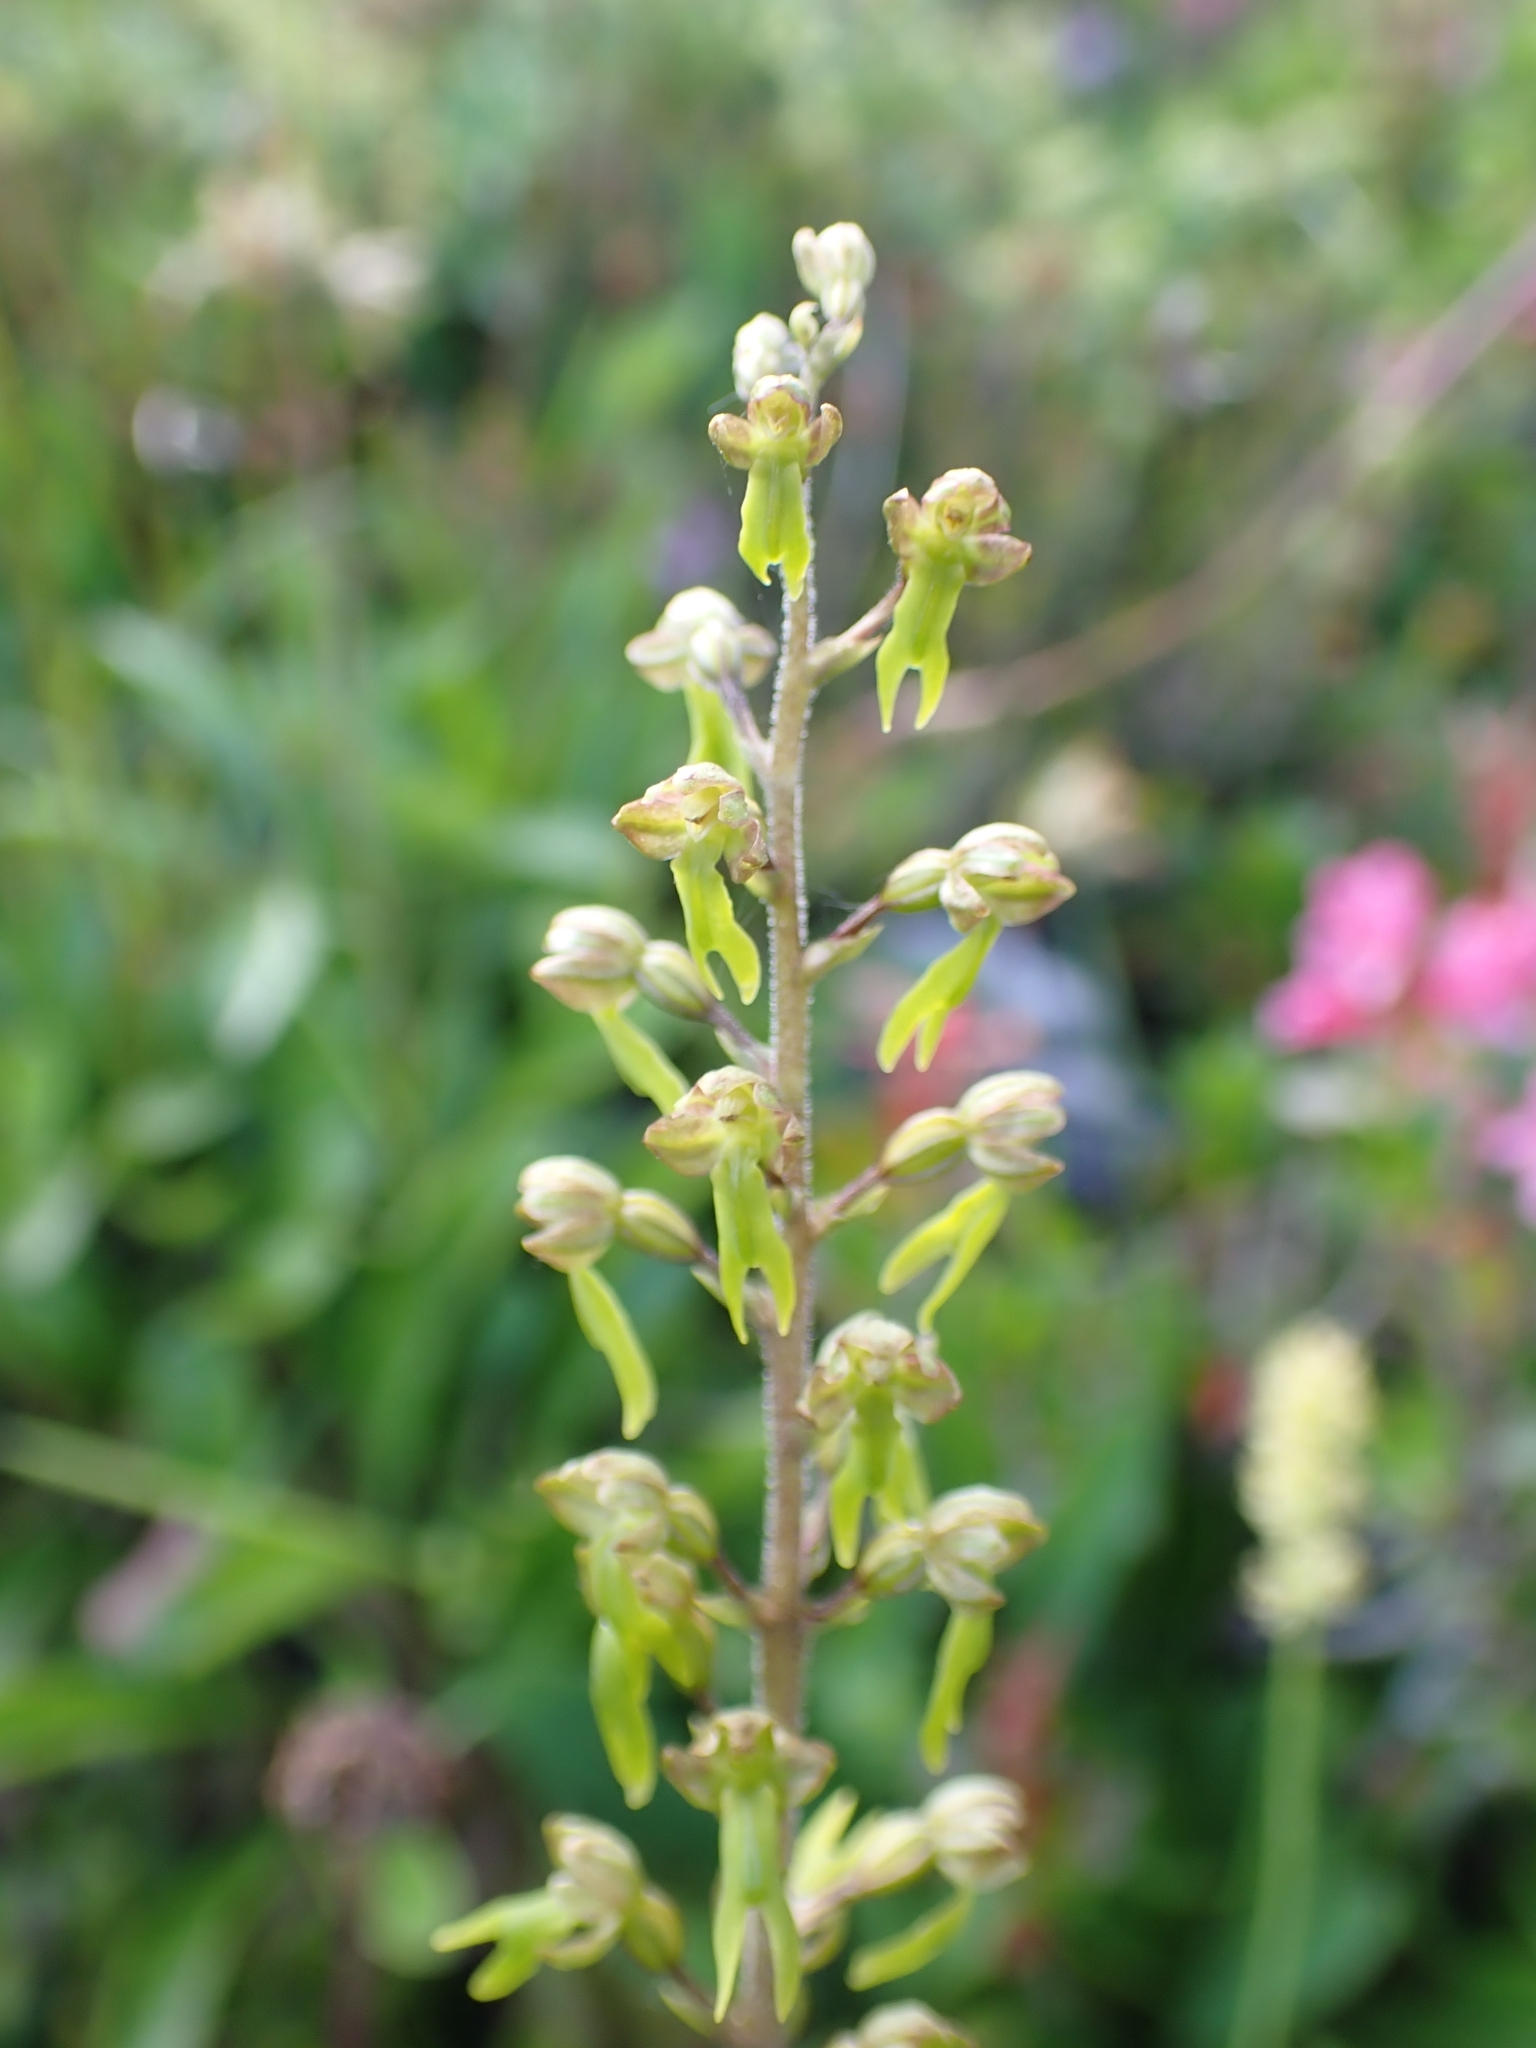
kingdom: Plantae
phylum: Tracheophyta
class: Liliopsida
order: Asparagales
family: Orchidaceae
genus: Neottia
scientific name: Neottia ovata
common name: Common twayblade
